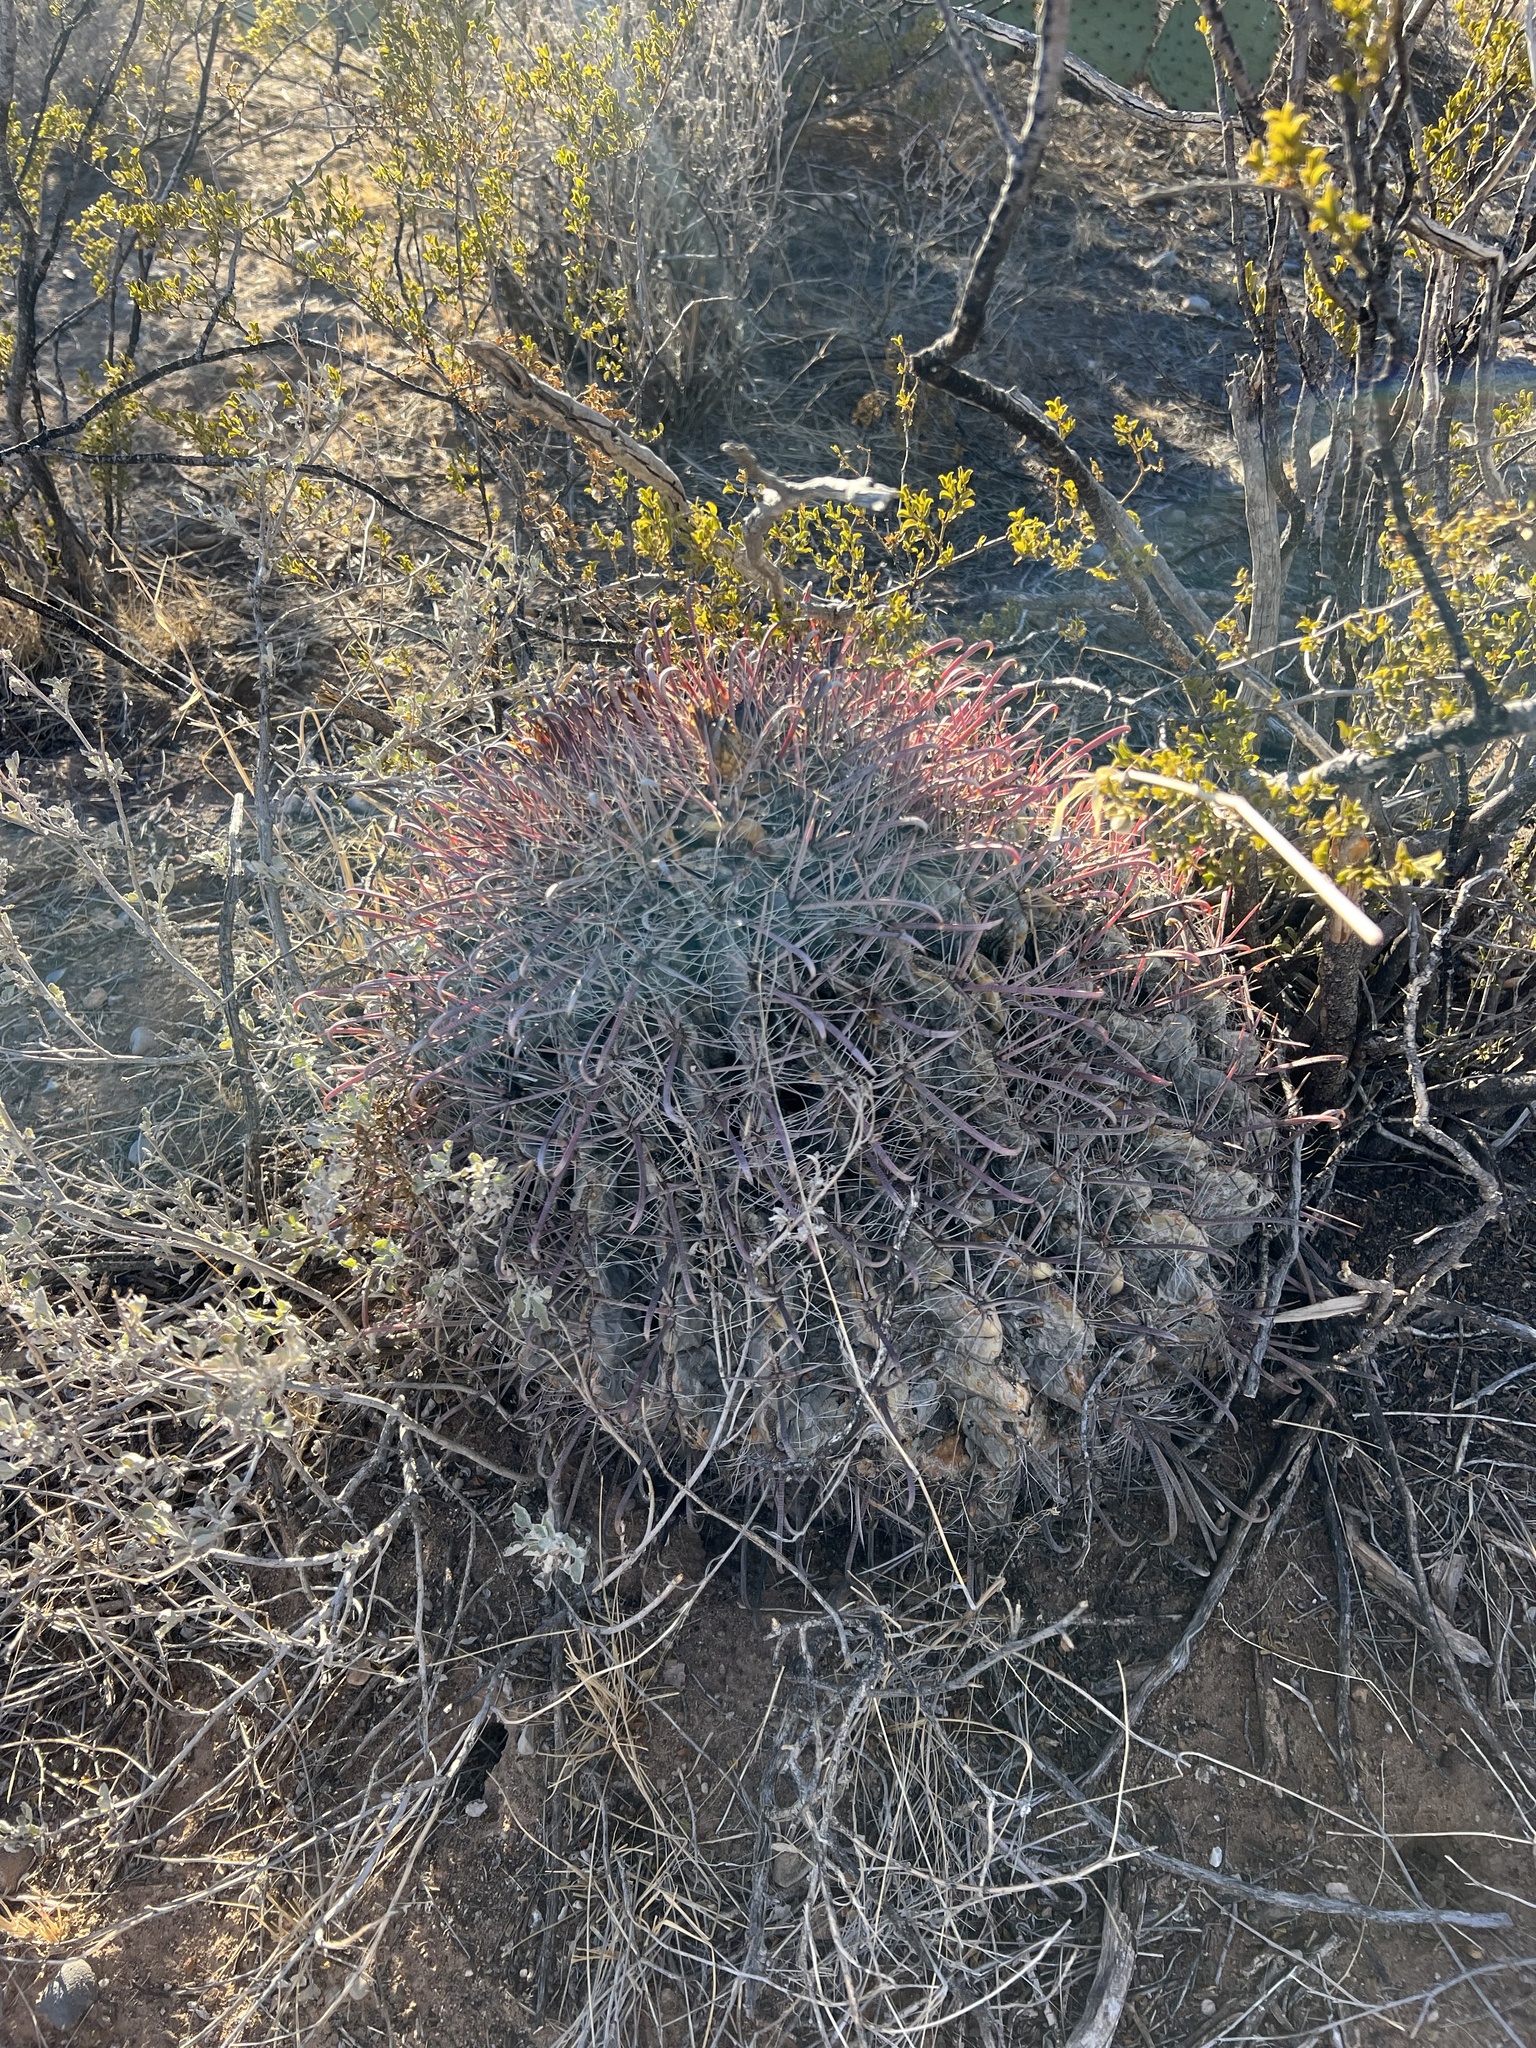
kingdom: Plantae
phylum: Tracheophyta
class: Magnoliopsida
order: Caryophyllales
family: Cactaceae
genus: Ferocactus
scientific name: Ferocactus wislizeni
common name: Candy barrel cactus
